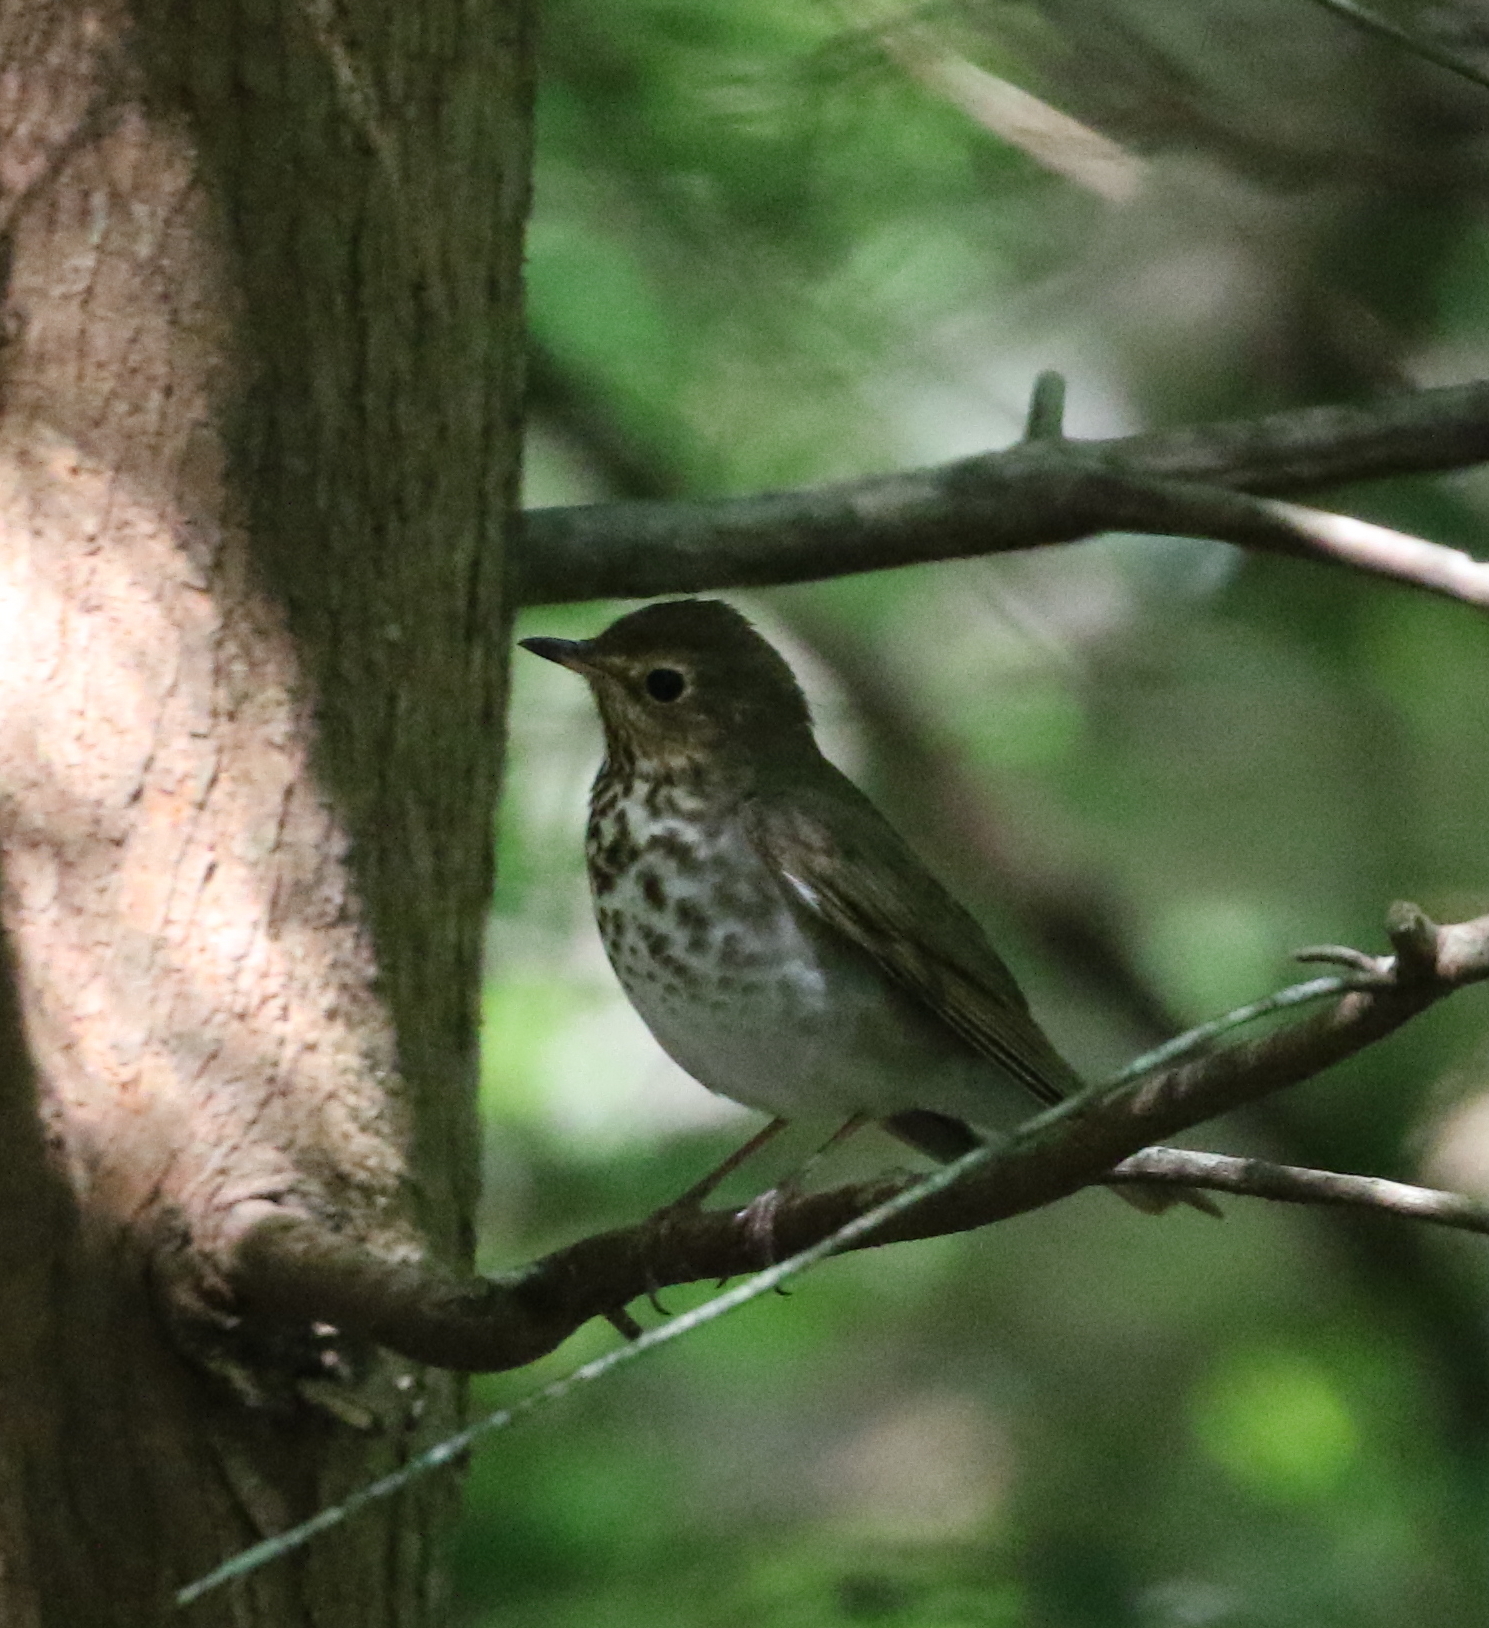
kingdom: Animalia
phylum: Chordata
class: Aves
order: Passeriformes
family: Turdidae
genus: Catharus
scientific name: Catharus ustulatus
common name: Swainson's thrush
